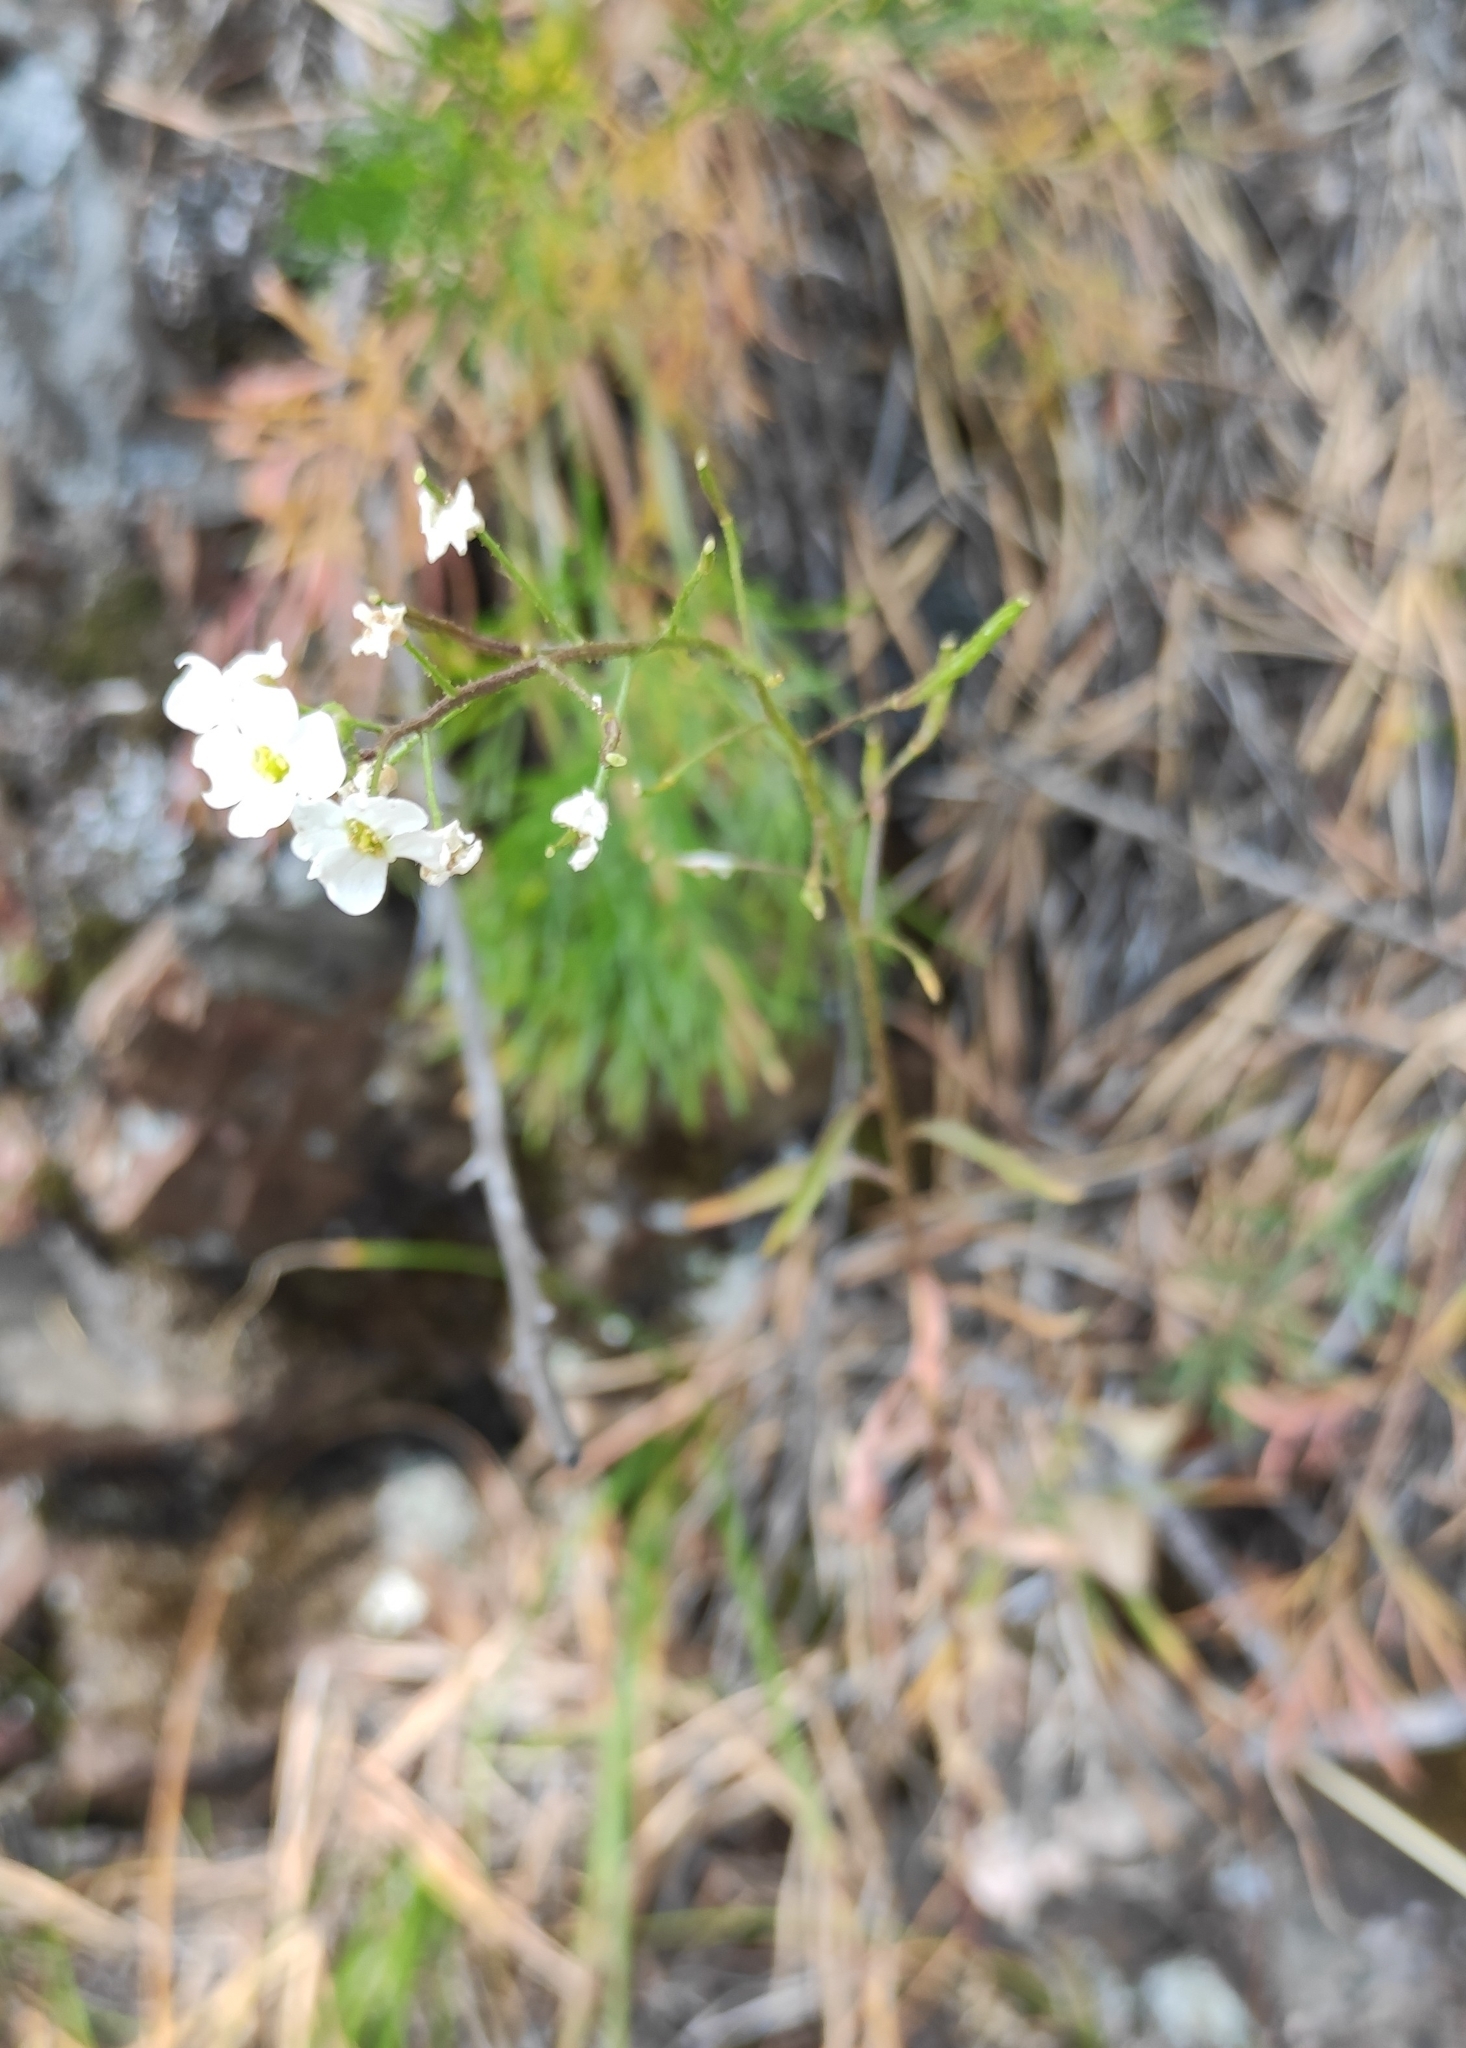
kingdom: Plantae
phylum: Tracheophyta
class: Magnoliopsida
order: Brassicales
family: Brassicaceae
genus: Dontostemon
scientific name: Dontostemon integrifolius
